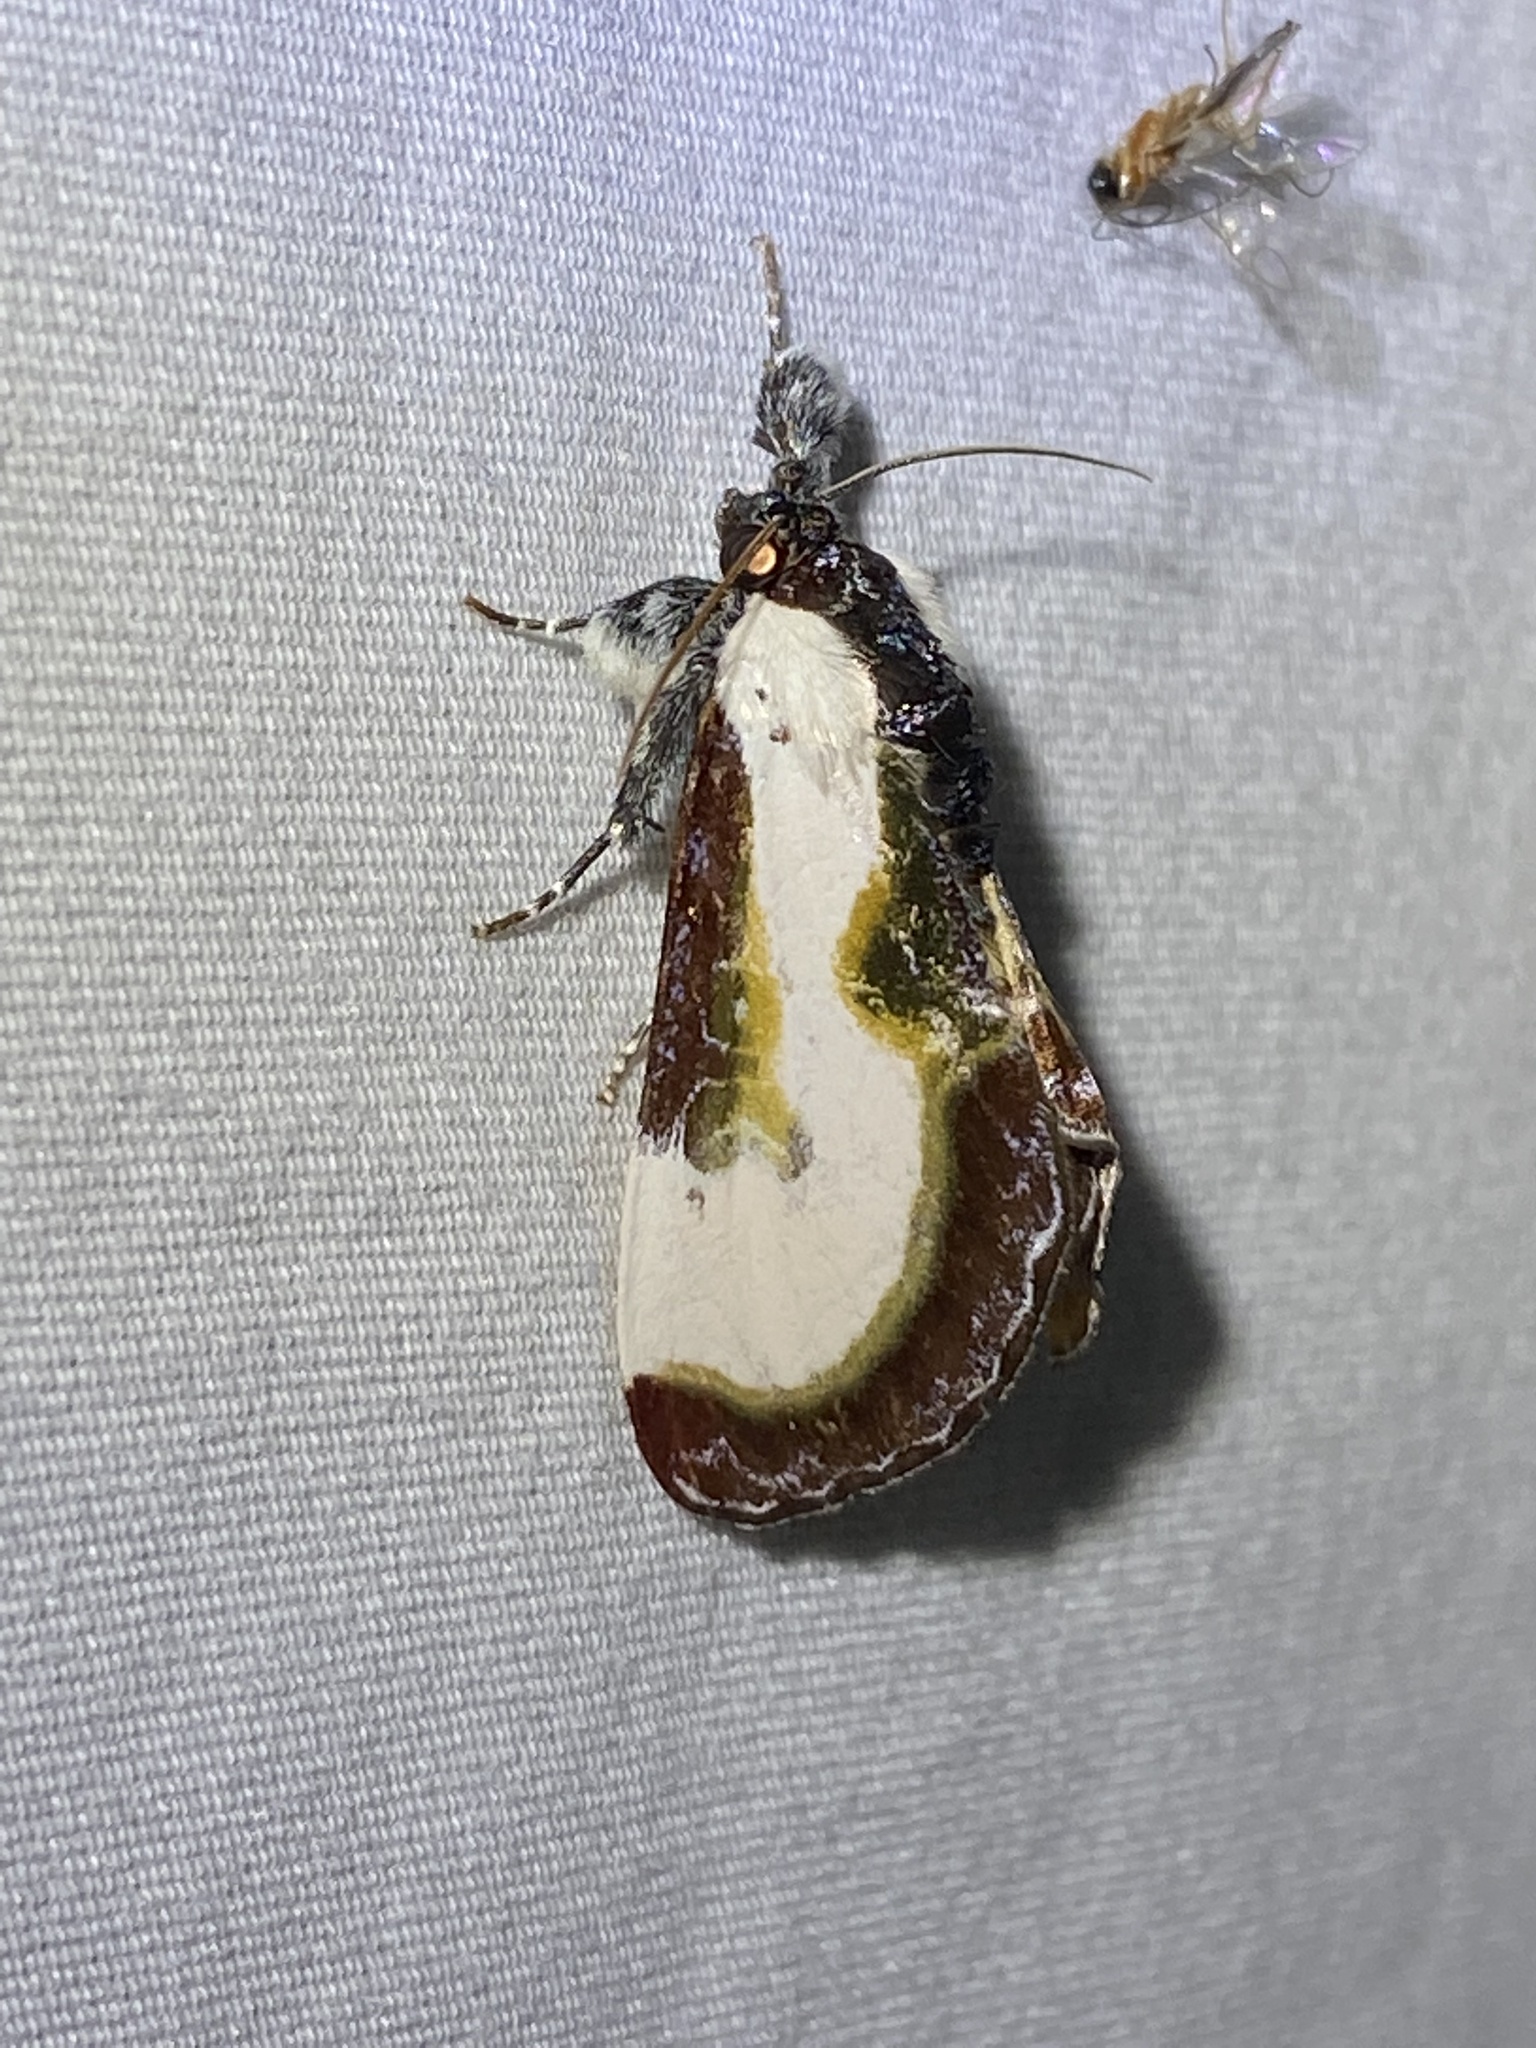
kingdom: Animalia
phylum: Arthropoda
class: Insecta
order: Lepidoptera
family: Noctuidae
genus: Eudryas
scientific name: Eudryas grata
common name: Beautiful wood-nymph
